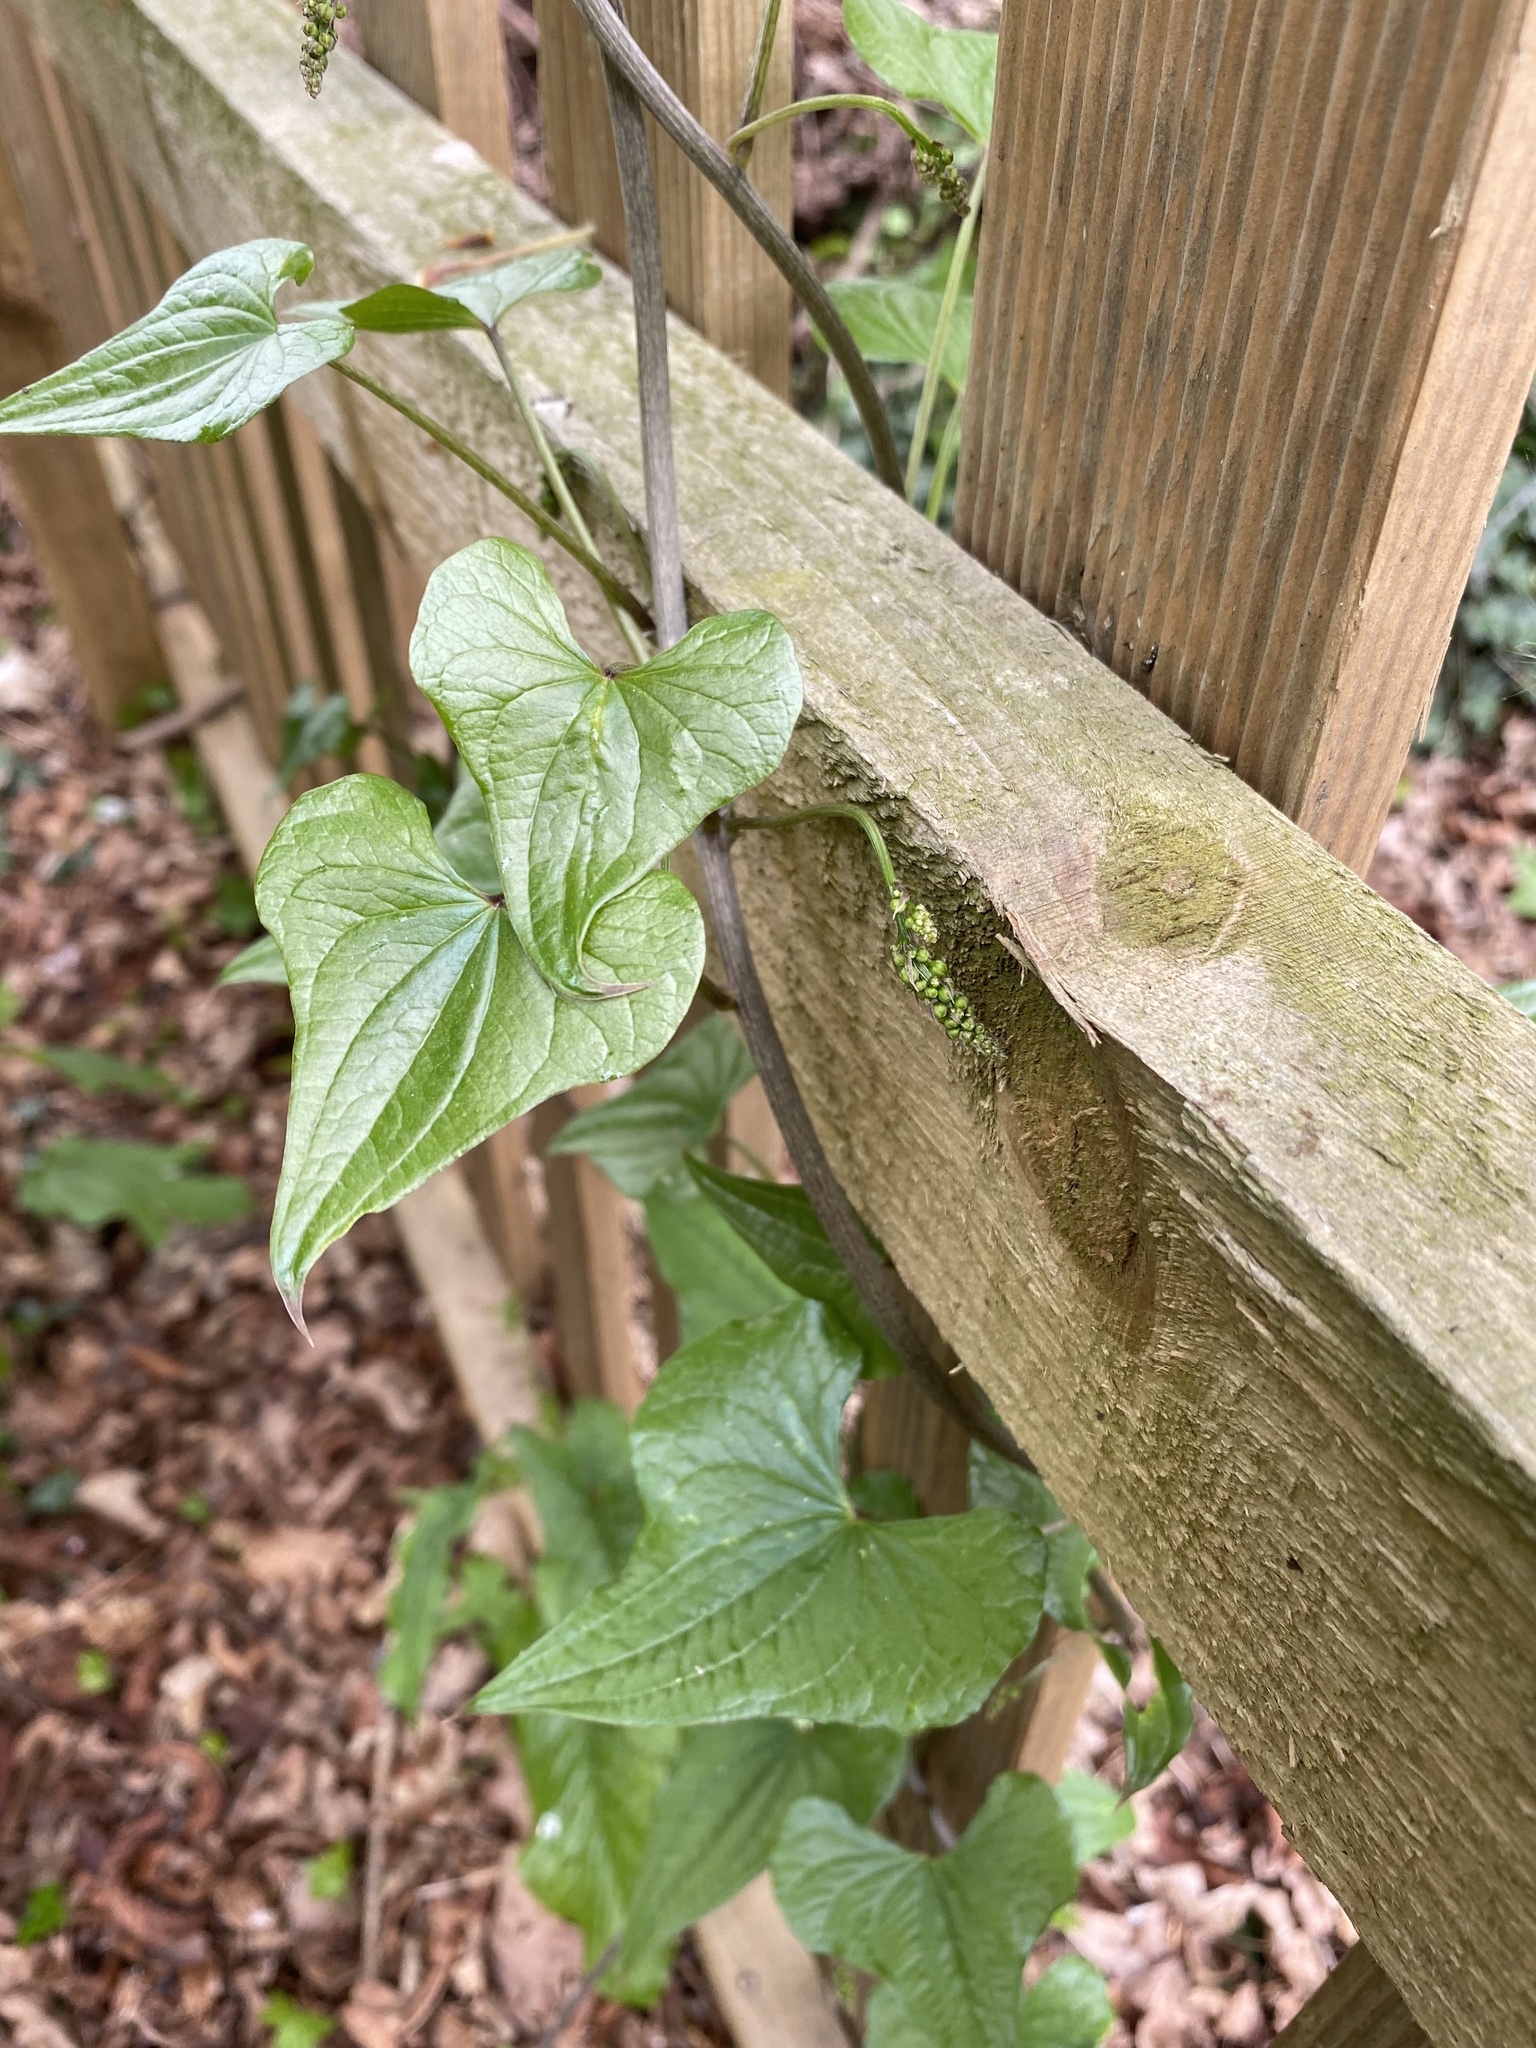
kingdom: Plantae
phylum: Tracheophyta
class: Liliopsida
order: Dioscoreales
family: Dioscoreaceae
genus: Dioscorea
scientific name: Dioscorea communis
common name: Black-bindweed
